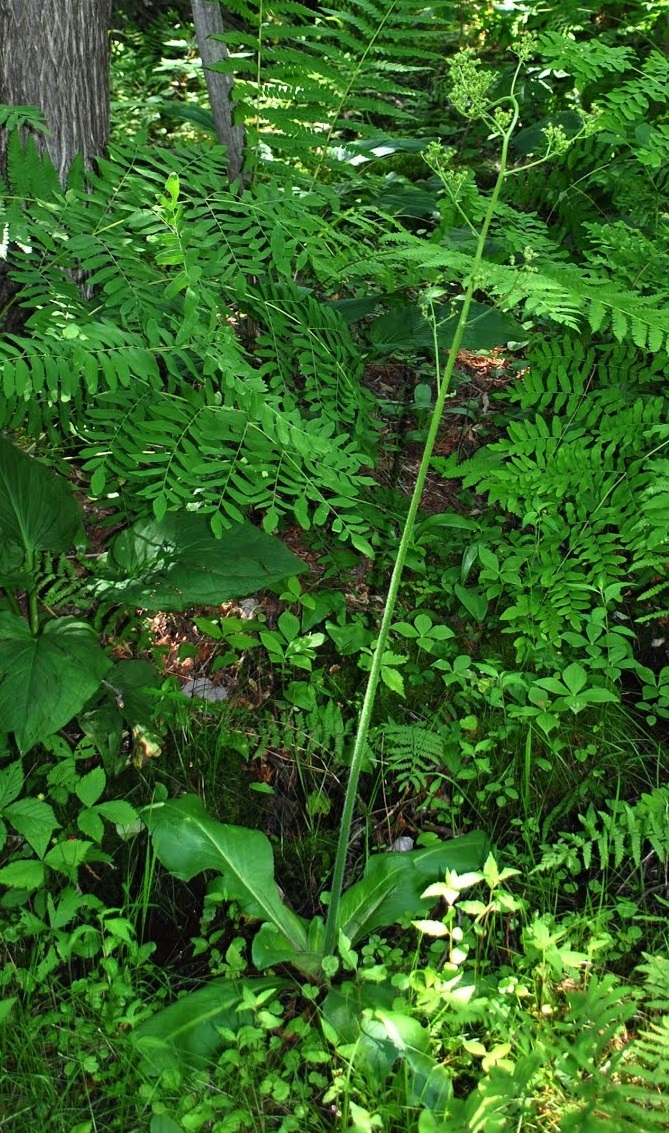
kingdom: Plantae
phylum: Tracheophyta
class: Magnoliopsida
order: Saxifragales
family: Saxifragaceae
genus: Micranthes
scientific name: Micranthes pensylvanica
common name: Marsh saxifrage
